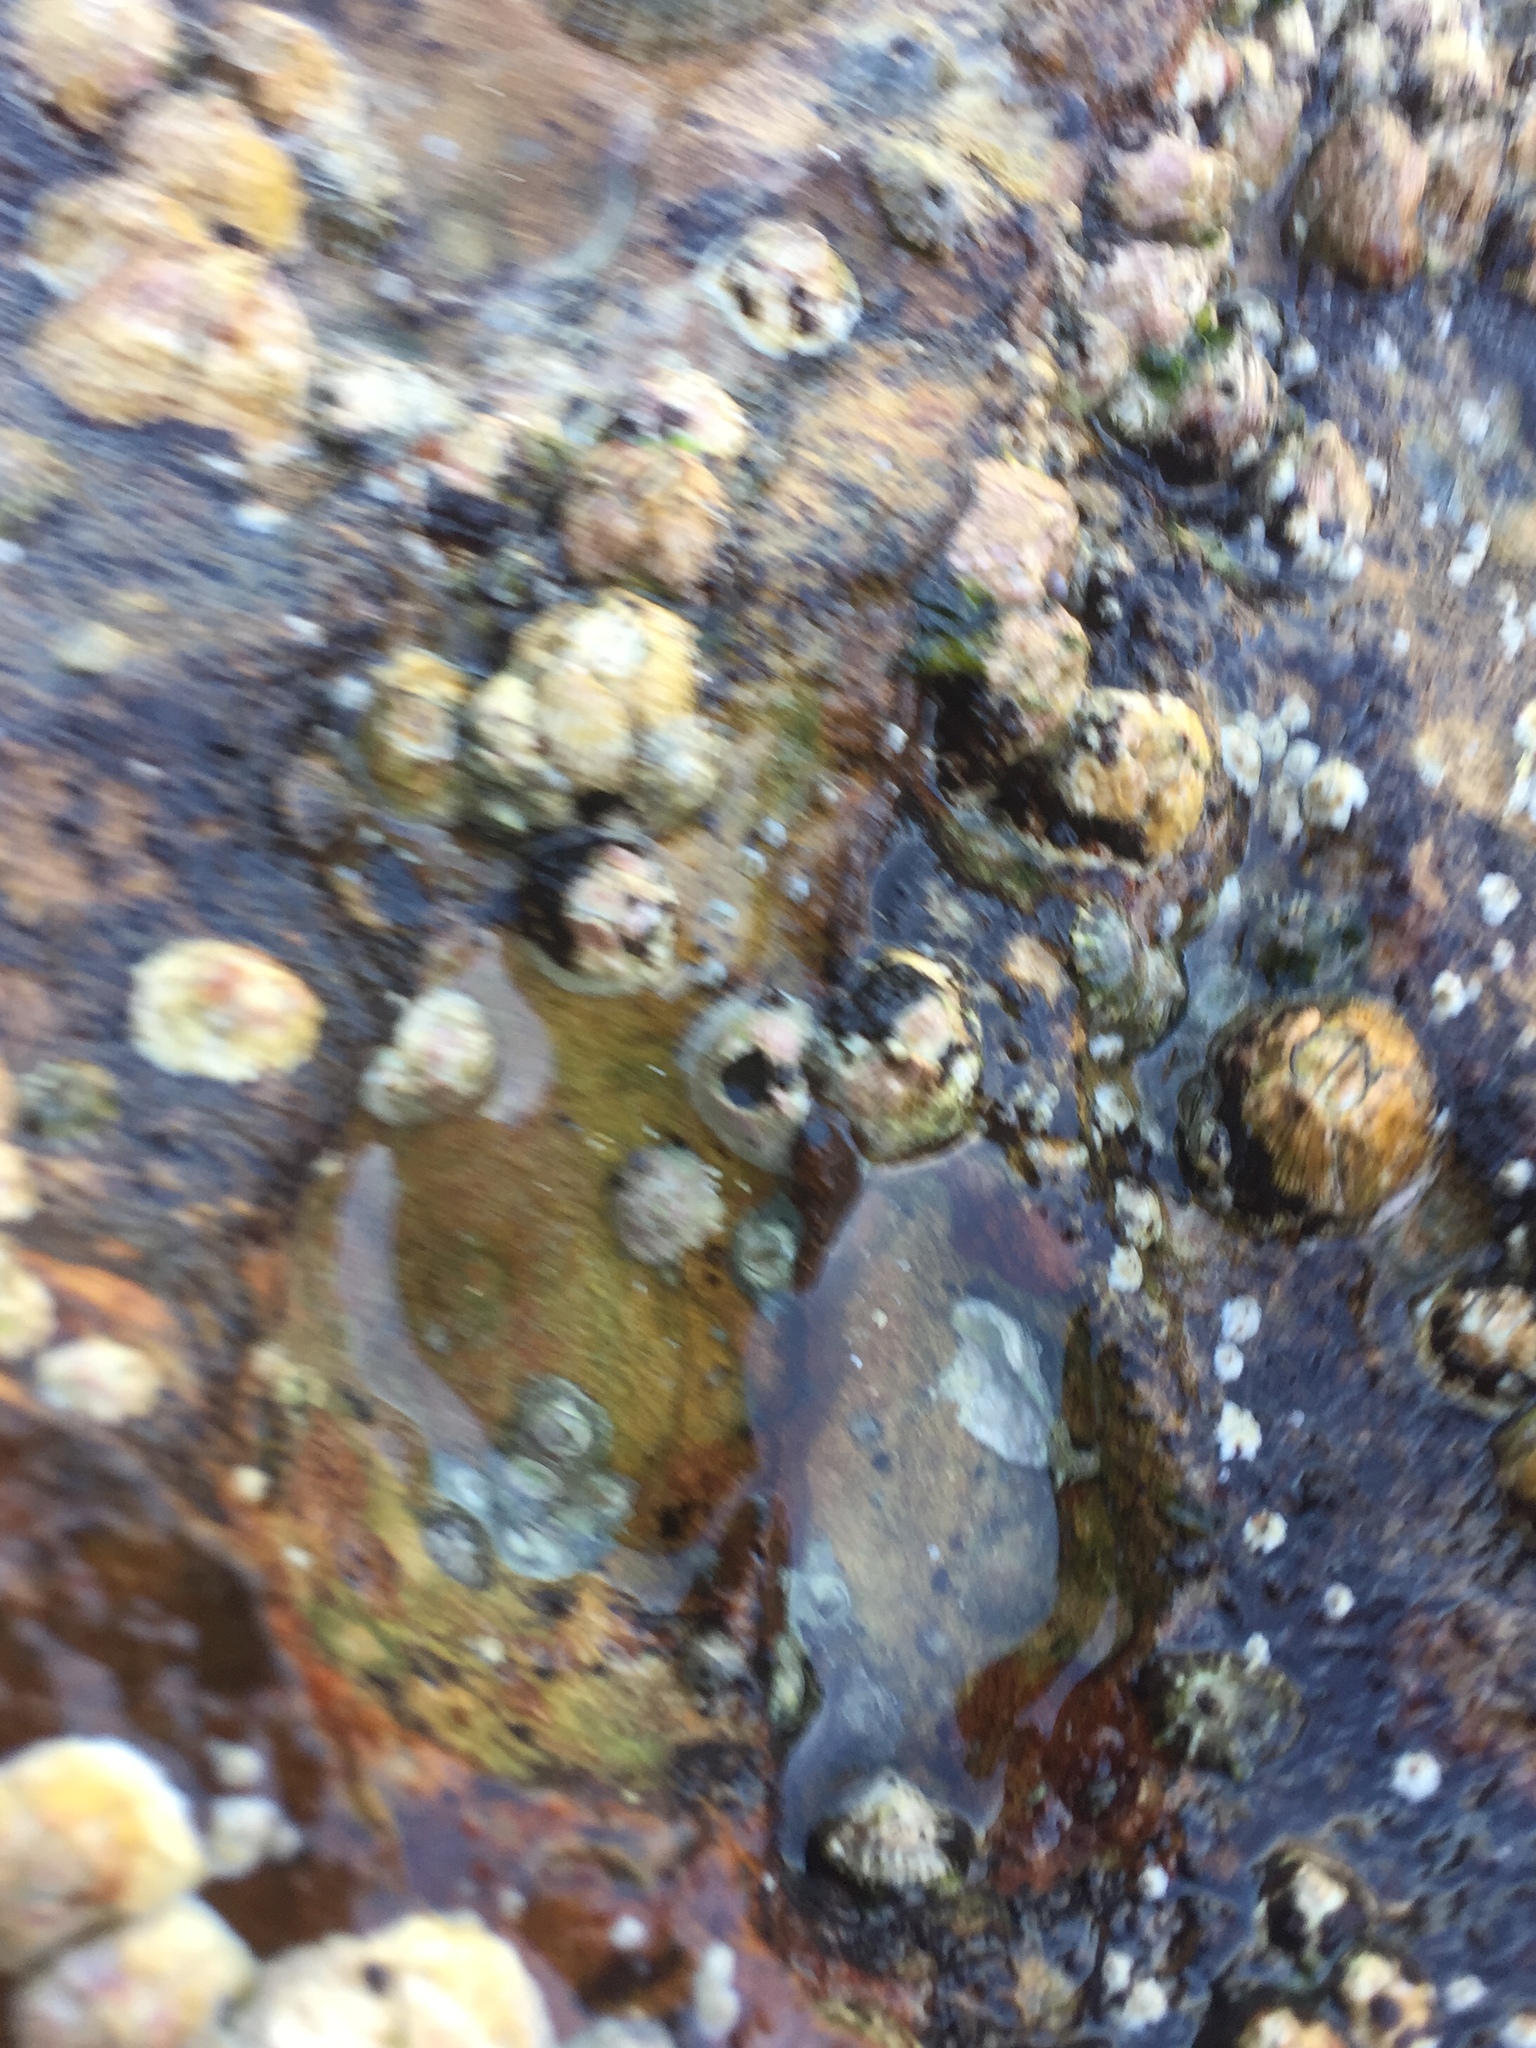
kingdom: Animalia
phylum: Arthropoda
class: Maxillopoda
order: Sessilia
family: Tetraclitidae
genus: Tesseropora
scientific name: Tesseropora rosea
